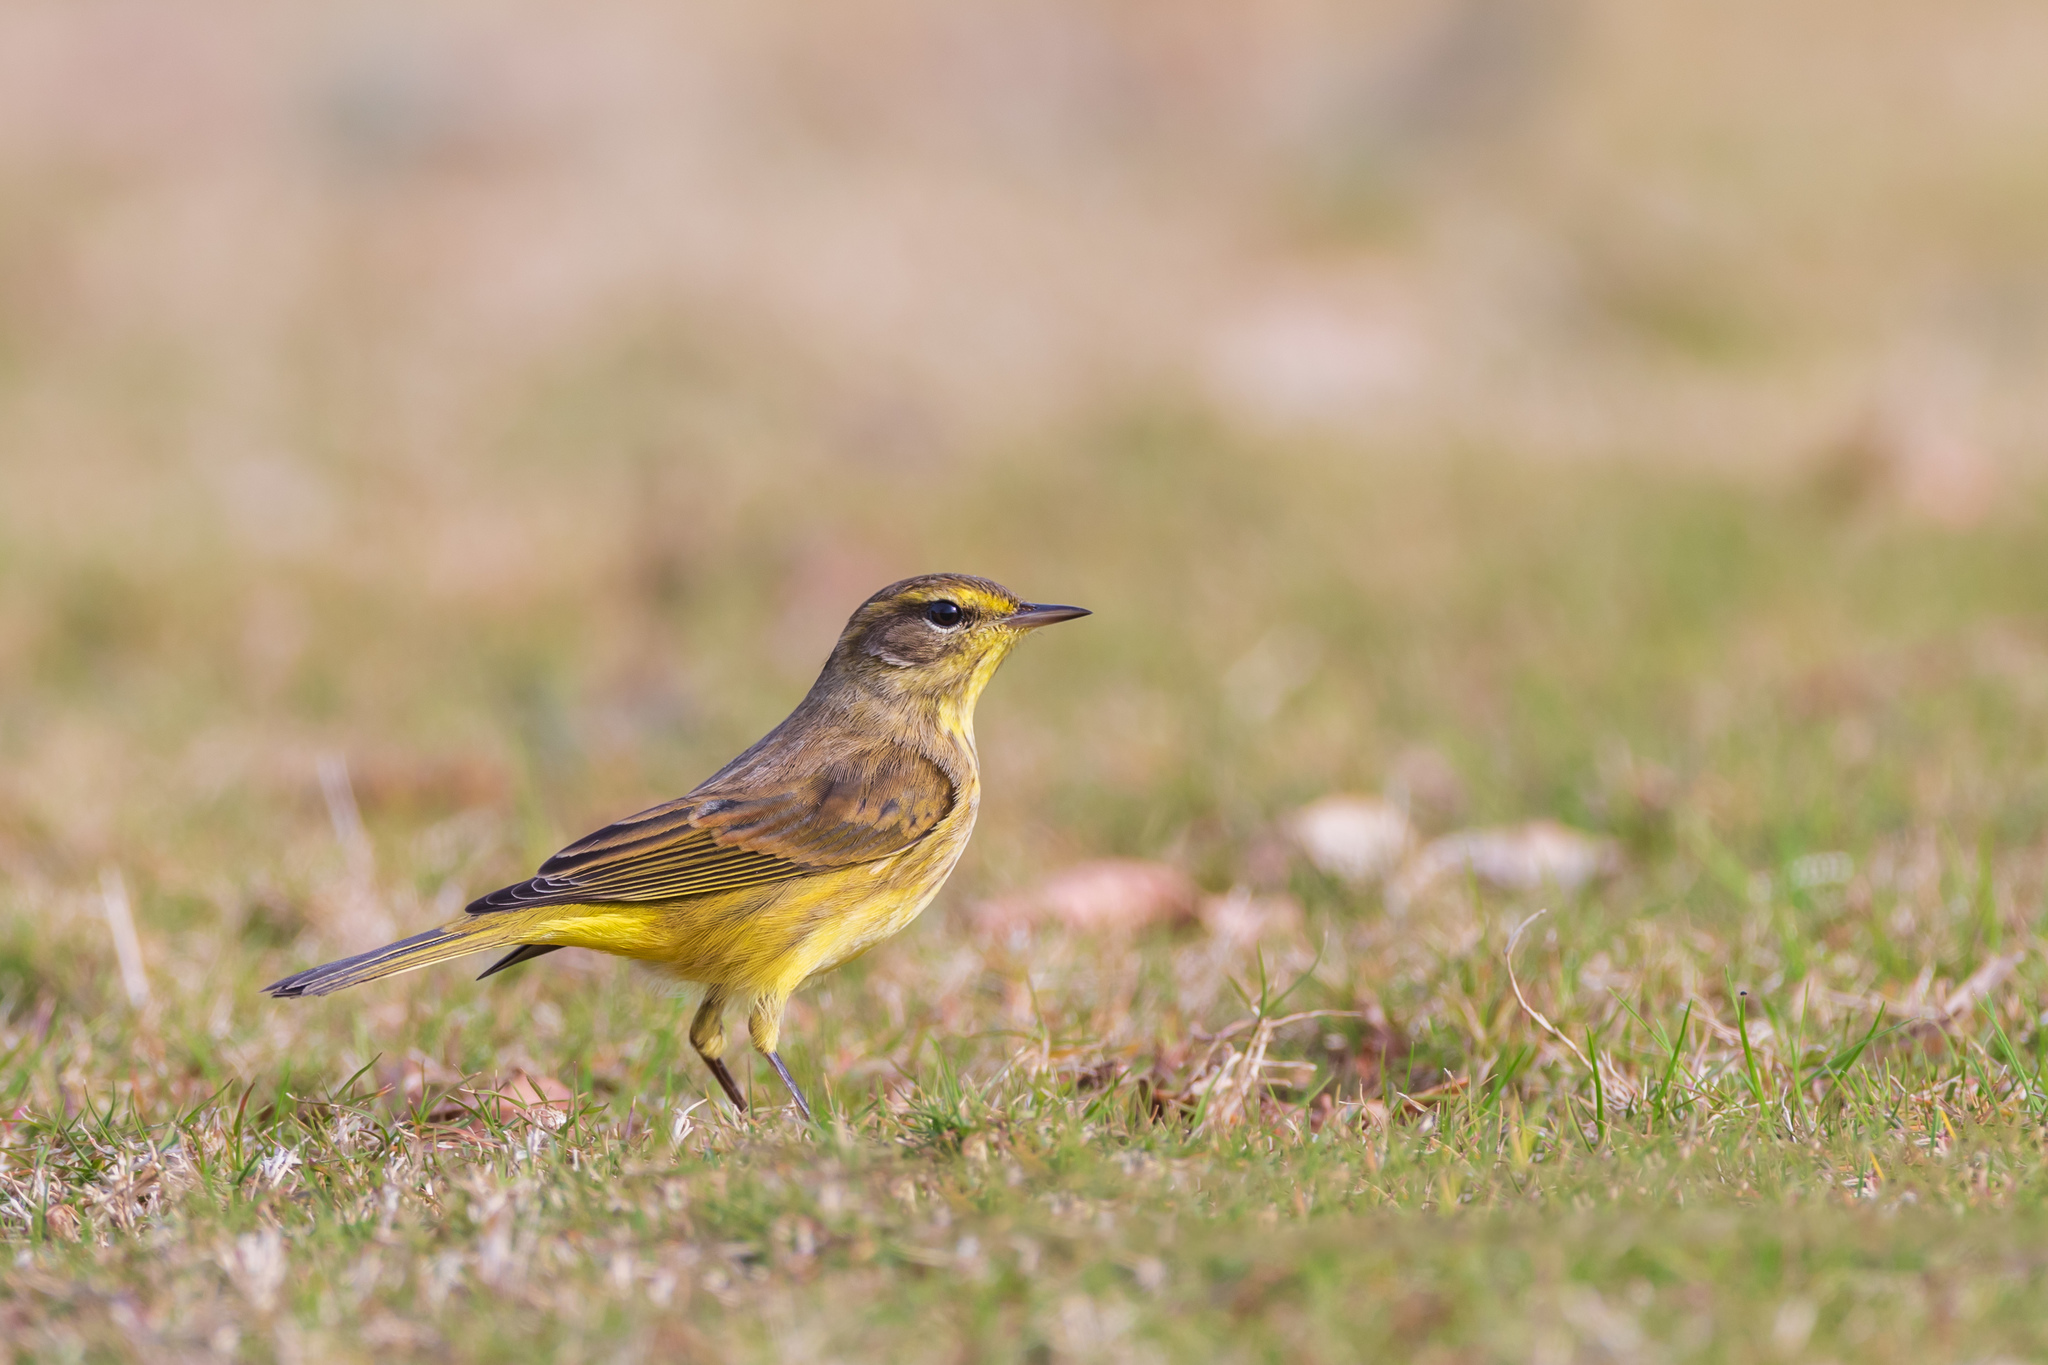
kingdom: Animalia
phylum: Chordata
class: Aves
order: Passeriformes
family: Parulidae
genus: Setophaga
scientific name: Setophaga palmarum
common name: Palm warbler
